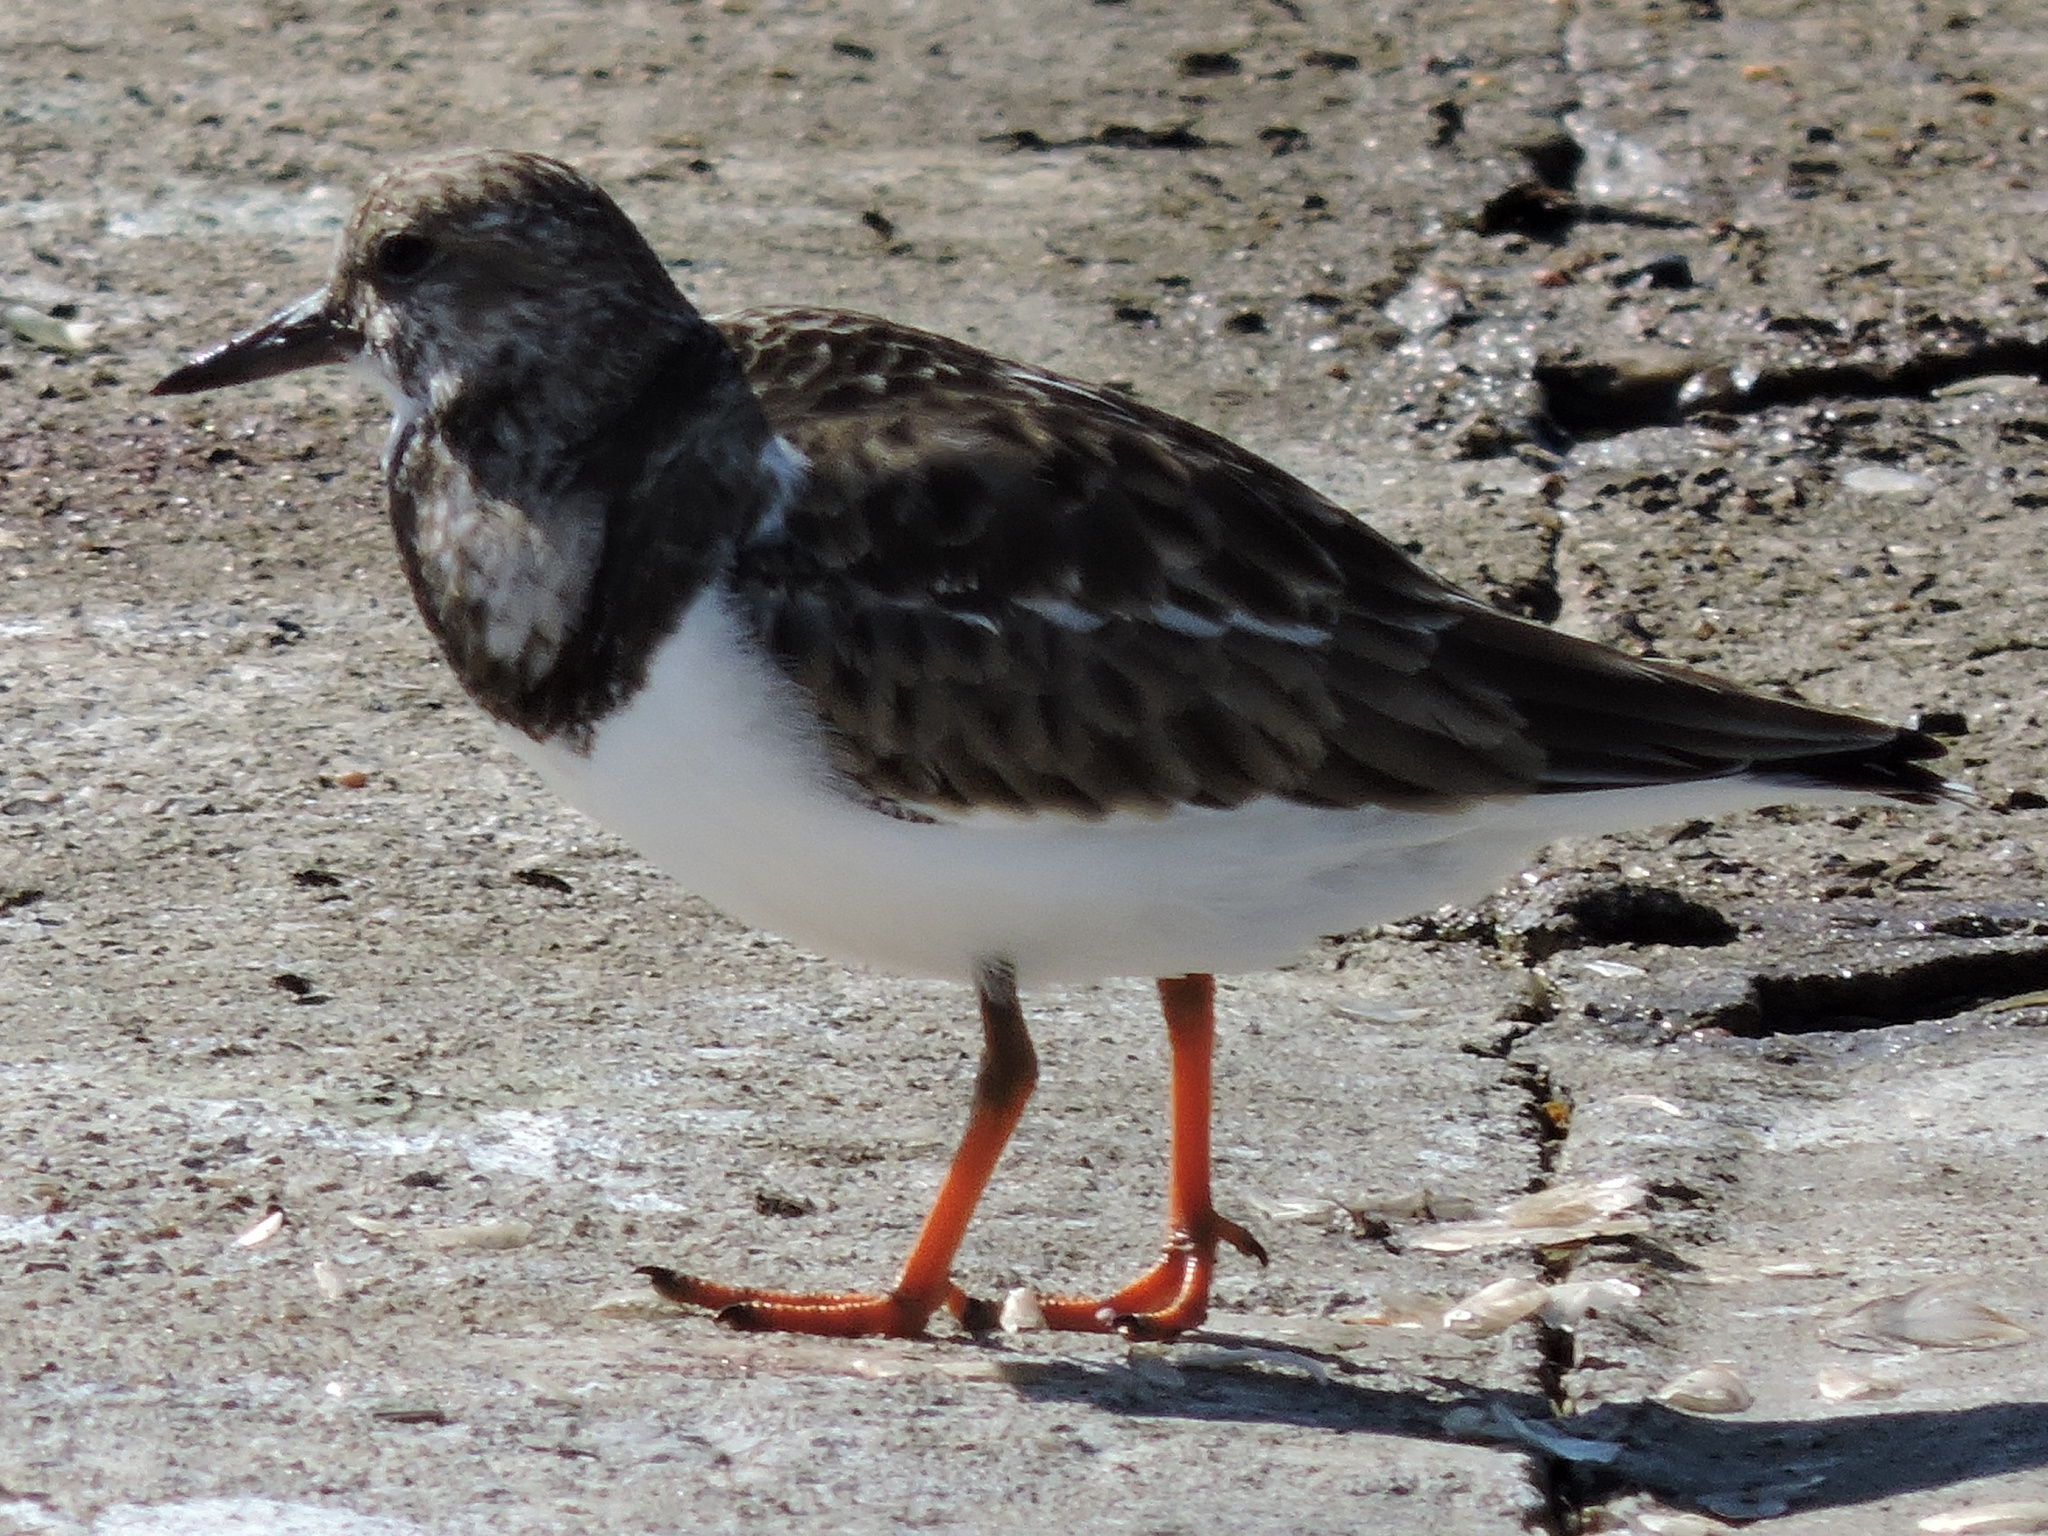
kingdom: Animalia
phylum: Chordata
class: Aves
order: Charadriiformes
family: Scolopacidae
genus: Arenaria
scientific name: Arenaria interpres
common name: Ruddy turnstone
